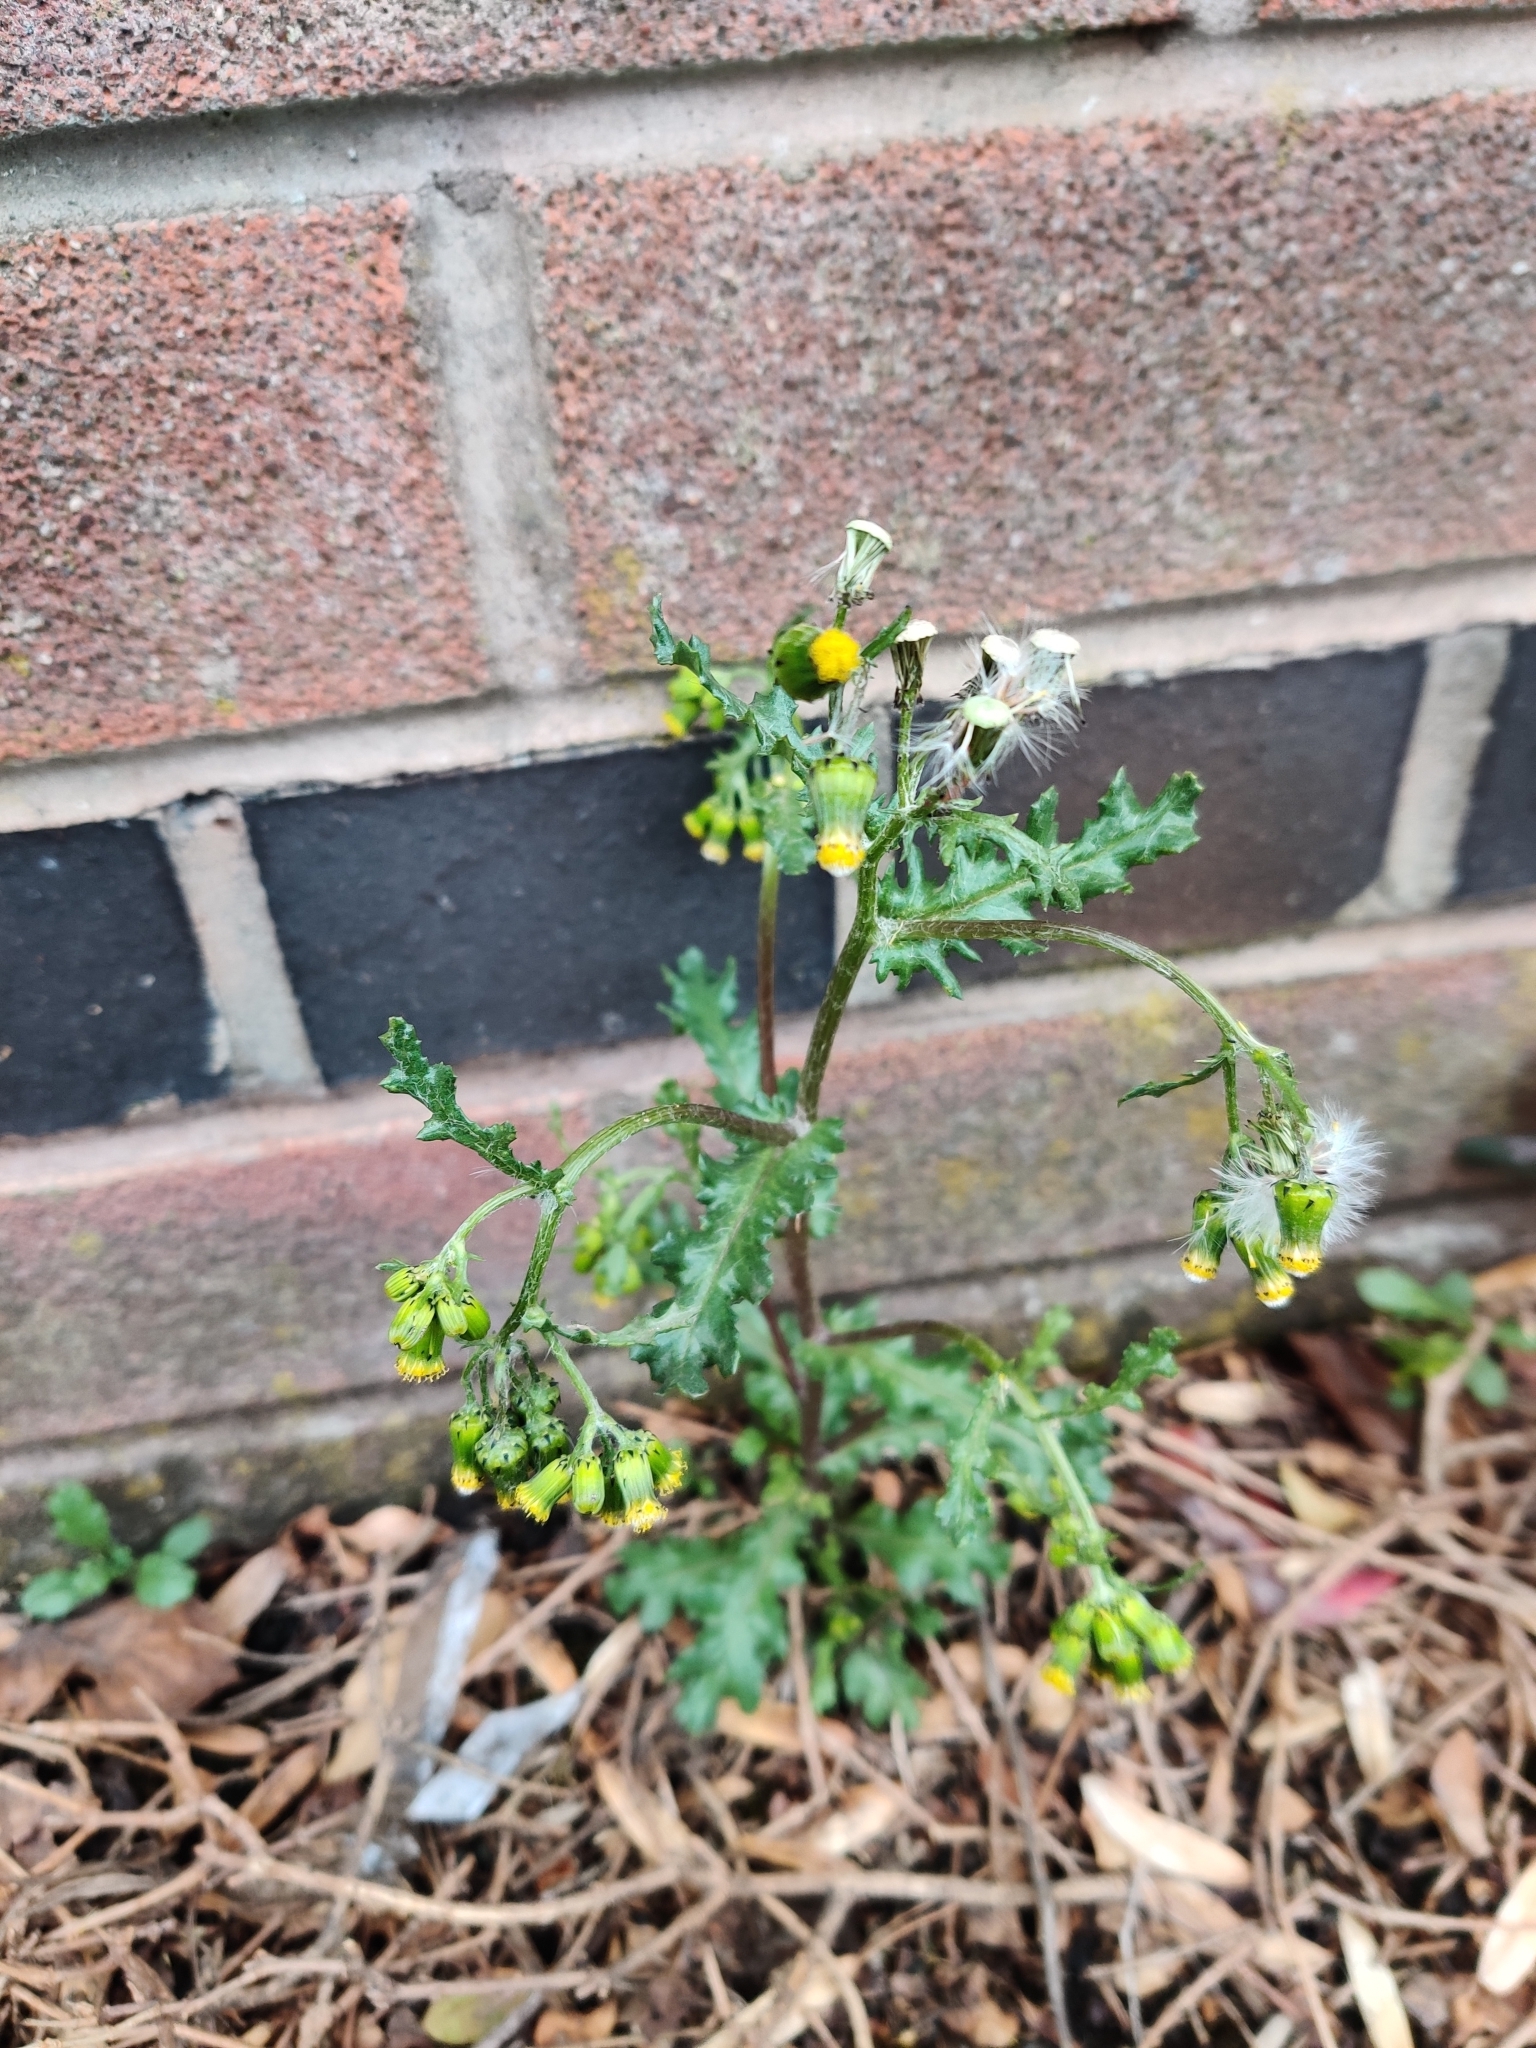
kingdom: Plantae
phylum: Tracheophyta
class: Magnoliopsida
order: Asterales
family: Asteraceae
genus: Senecio
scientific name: Senecio vulgaris
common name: Old-man-in-the-spring
